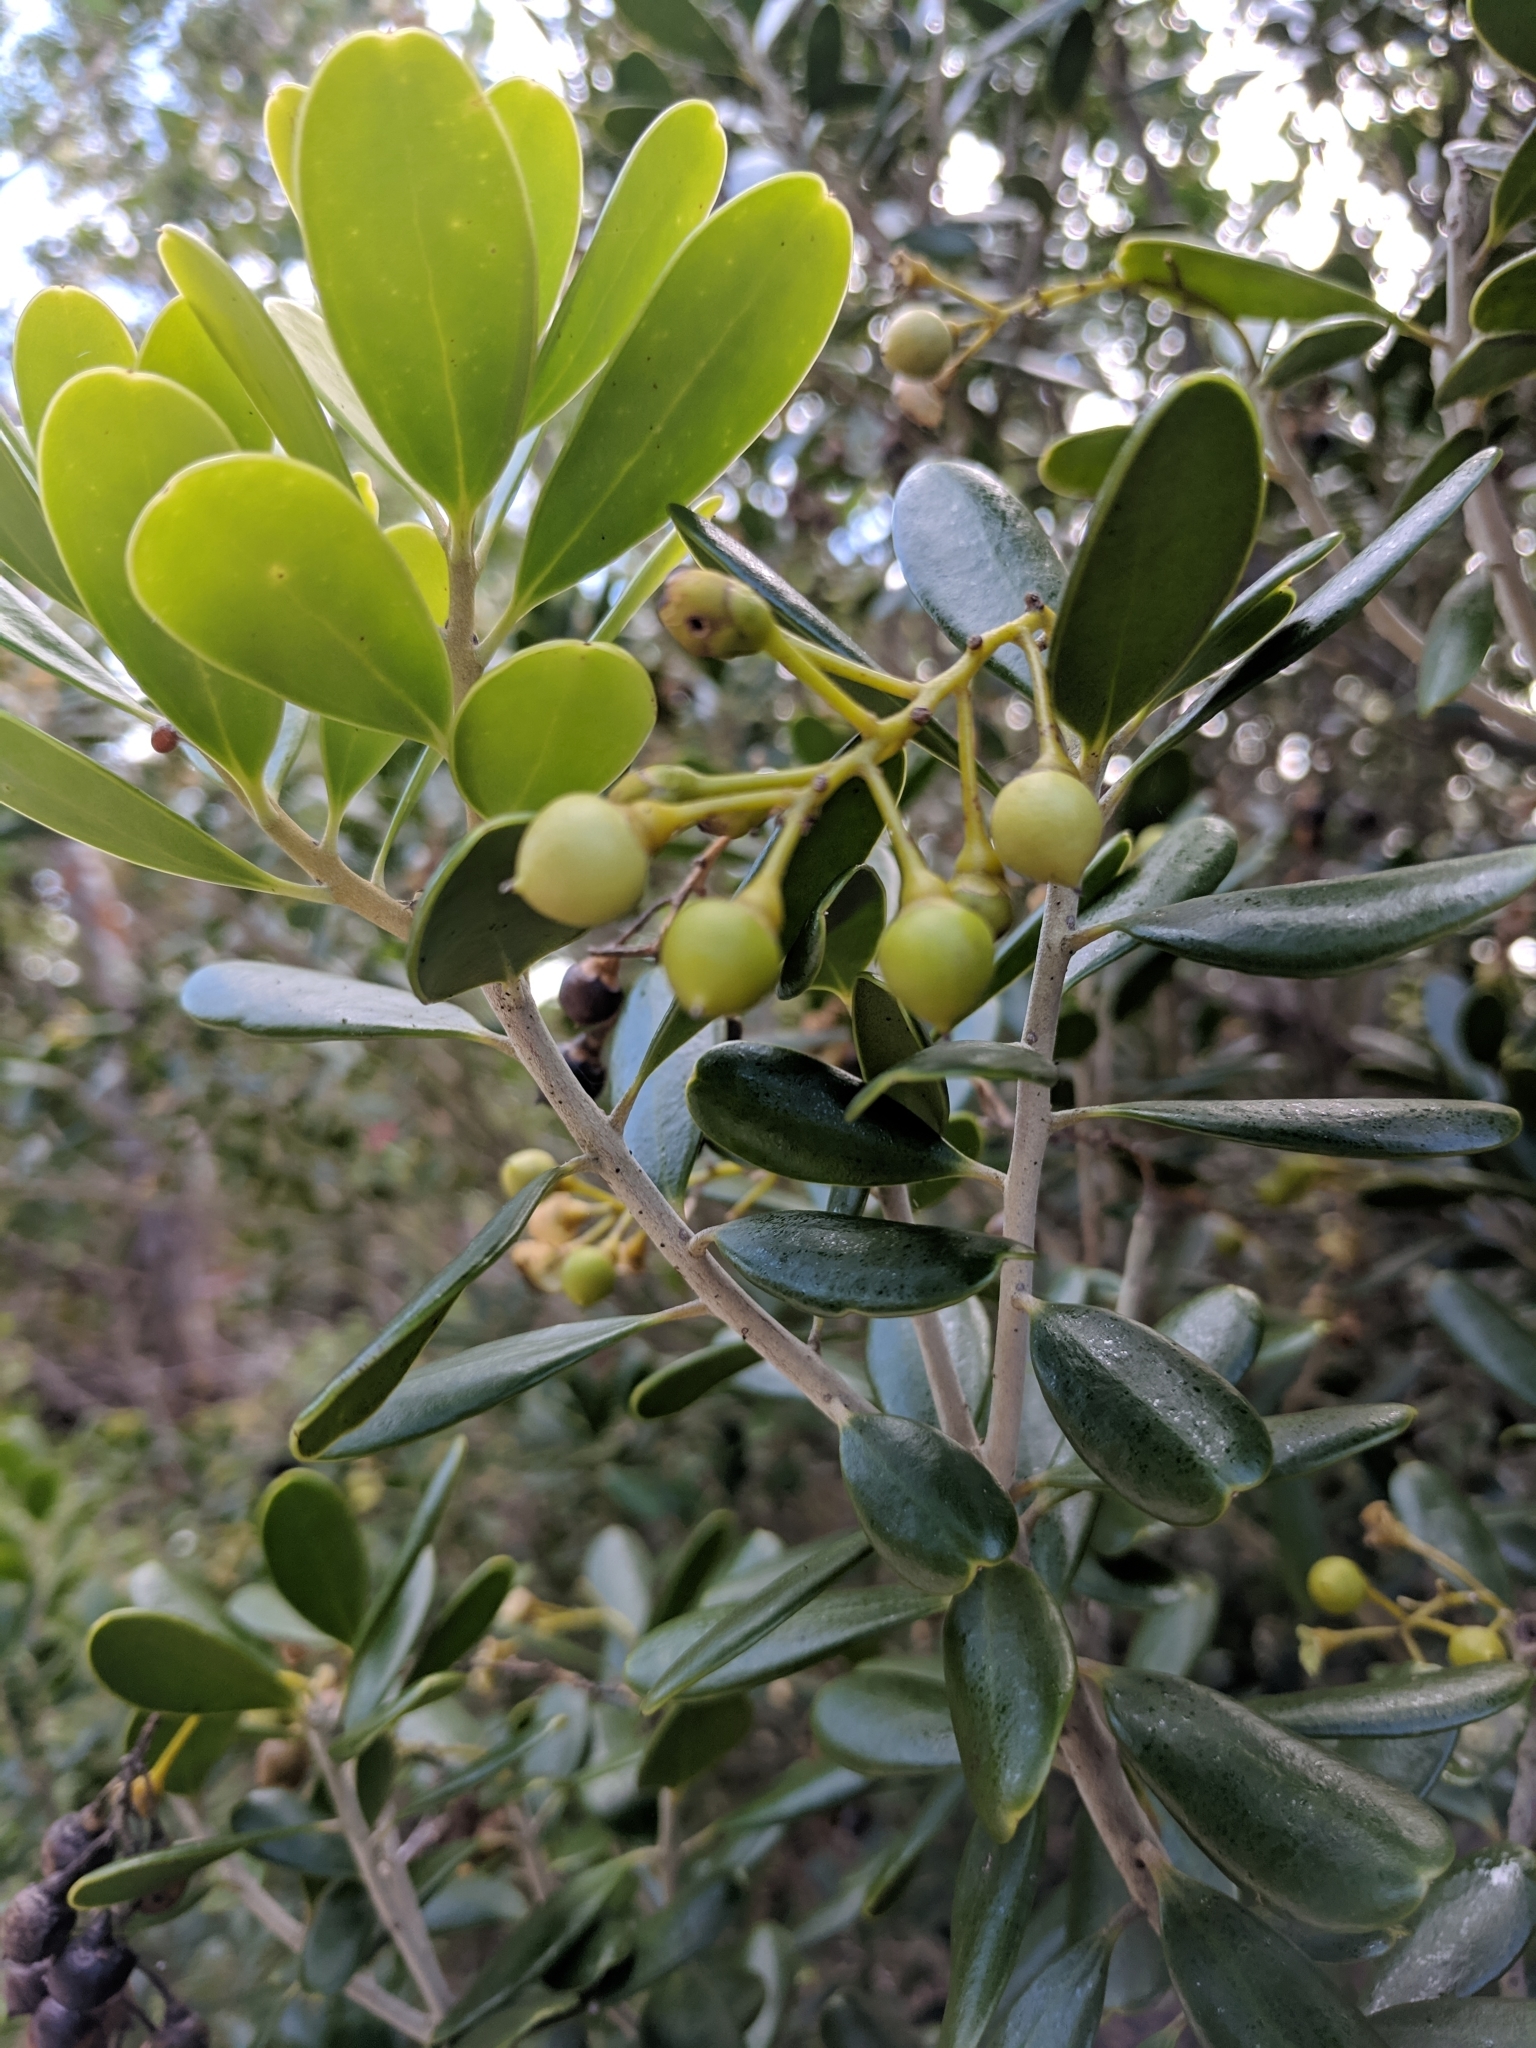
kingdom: Plantae
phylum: Tracheophyta
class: Magnoliopsida
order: Ericales
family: Primulaceae
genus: Jacquinia
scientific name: Jacquinia keyensis
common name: Joebush
